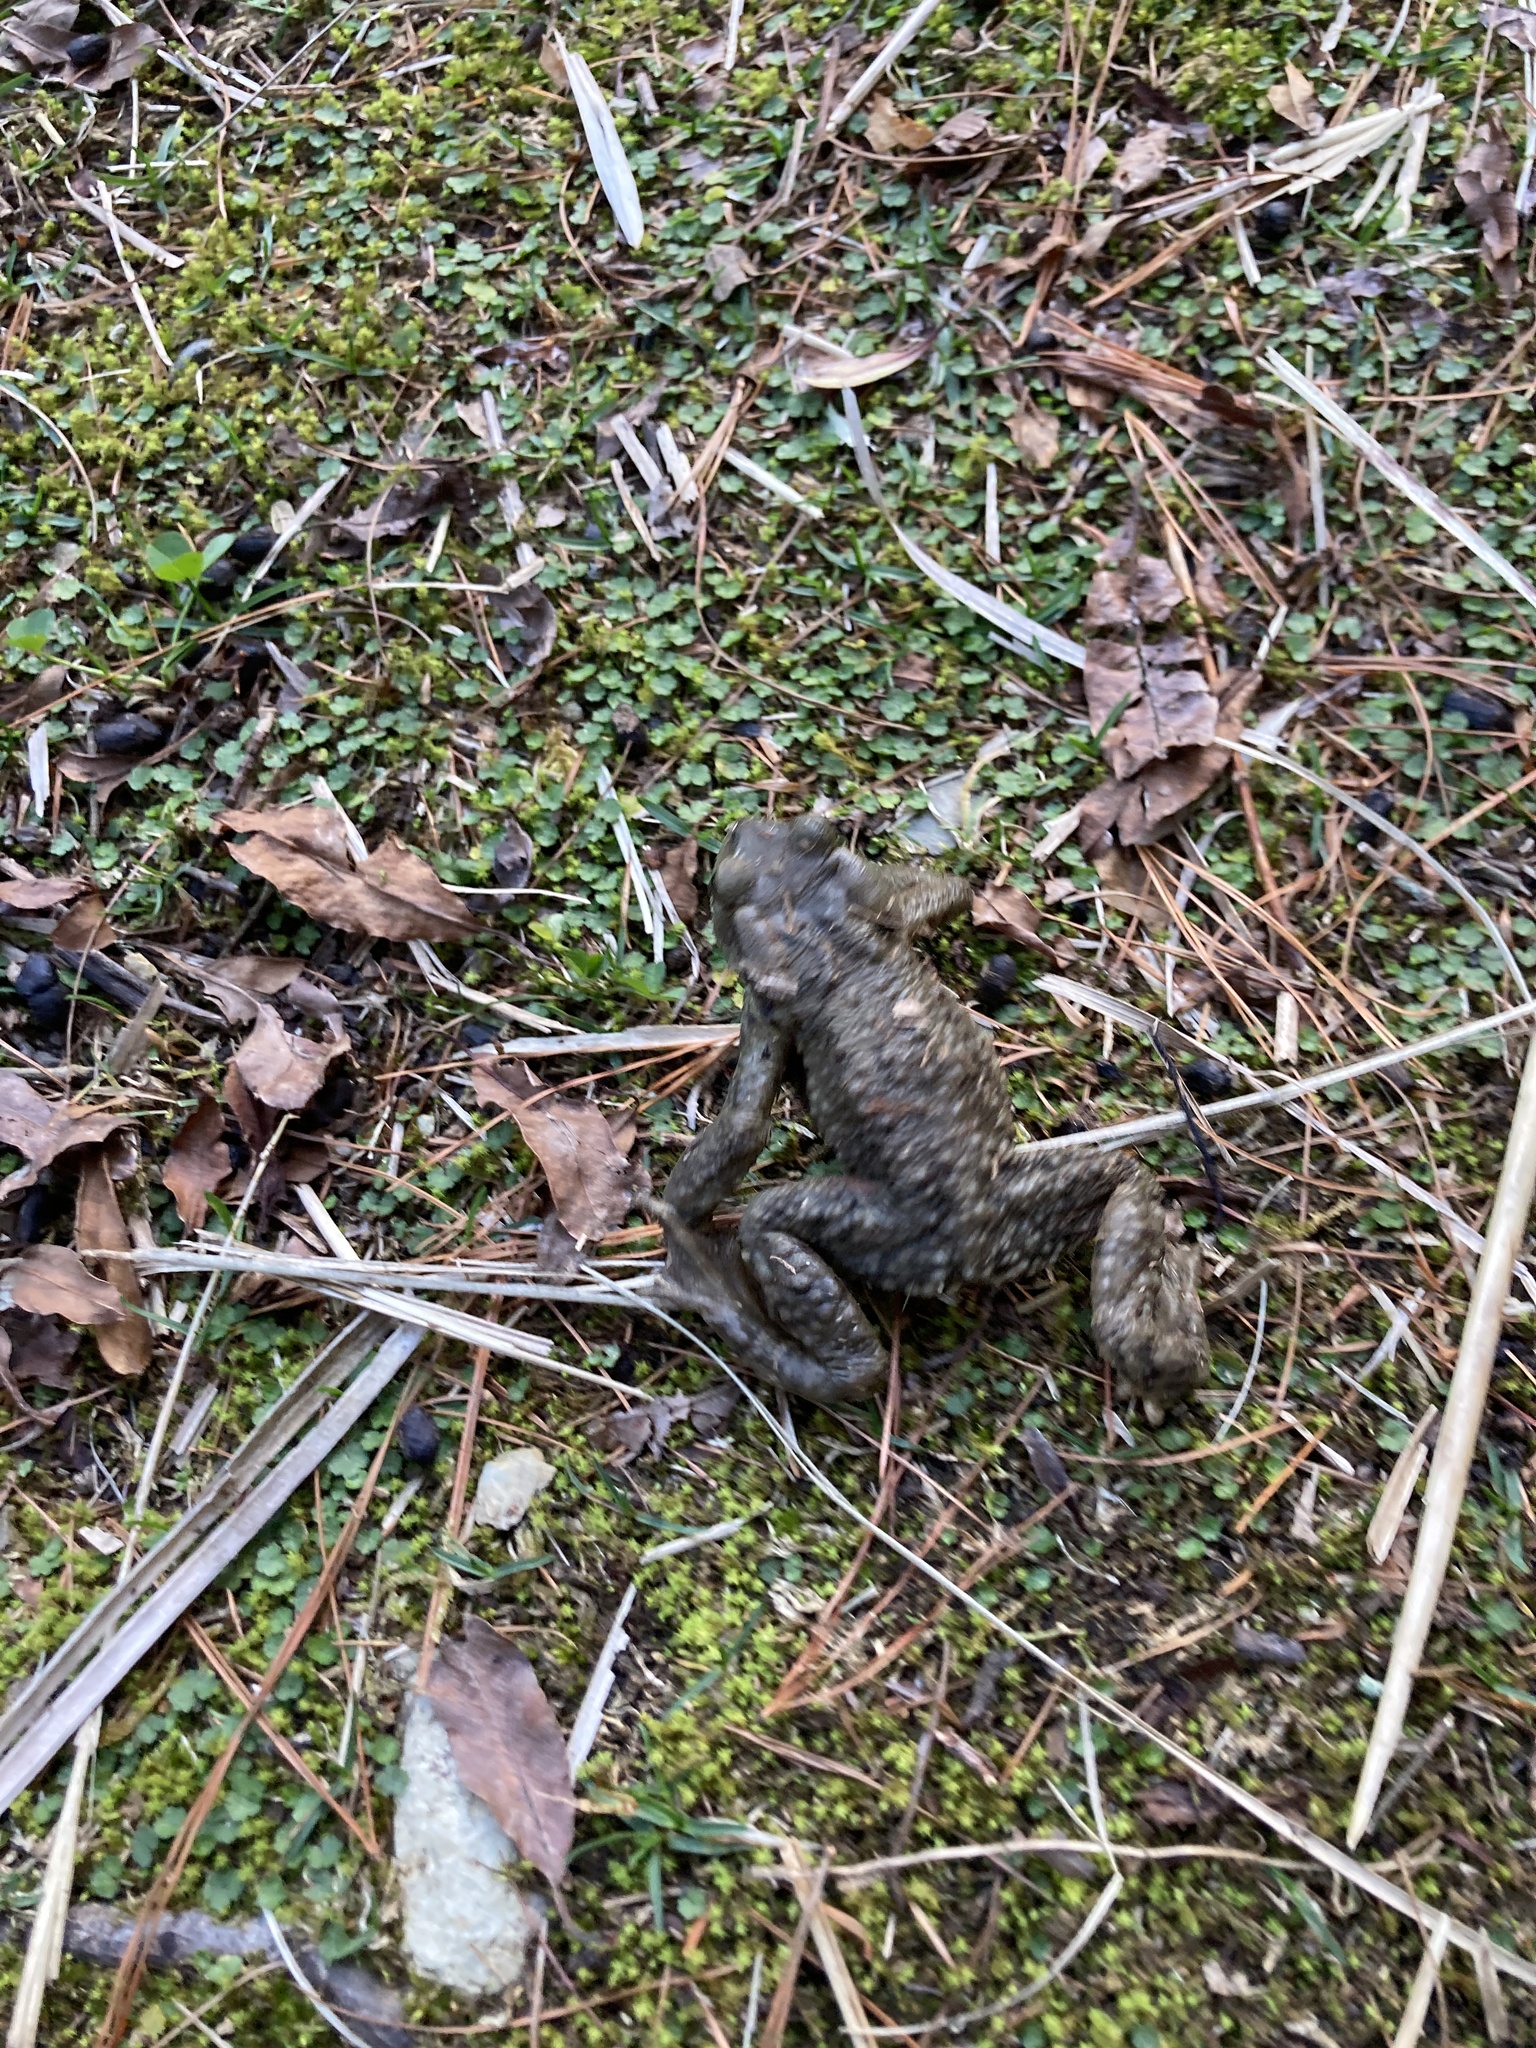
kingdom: Animalia
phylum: Chordata
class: Amphibia
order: Anura
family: Bufonidae
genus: Bufo
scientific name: Bufo bankorensis
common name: Bankor toad
